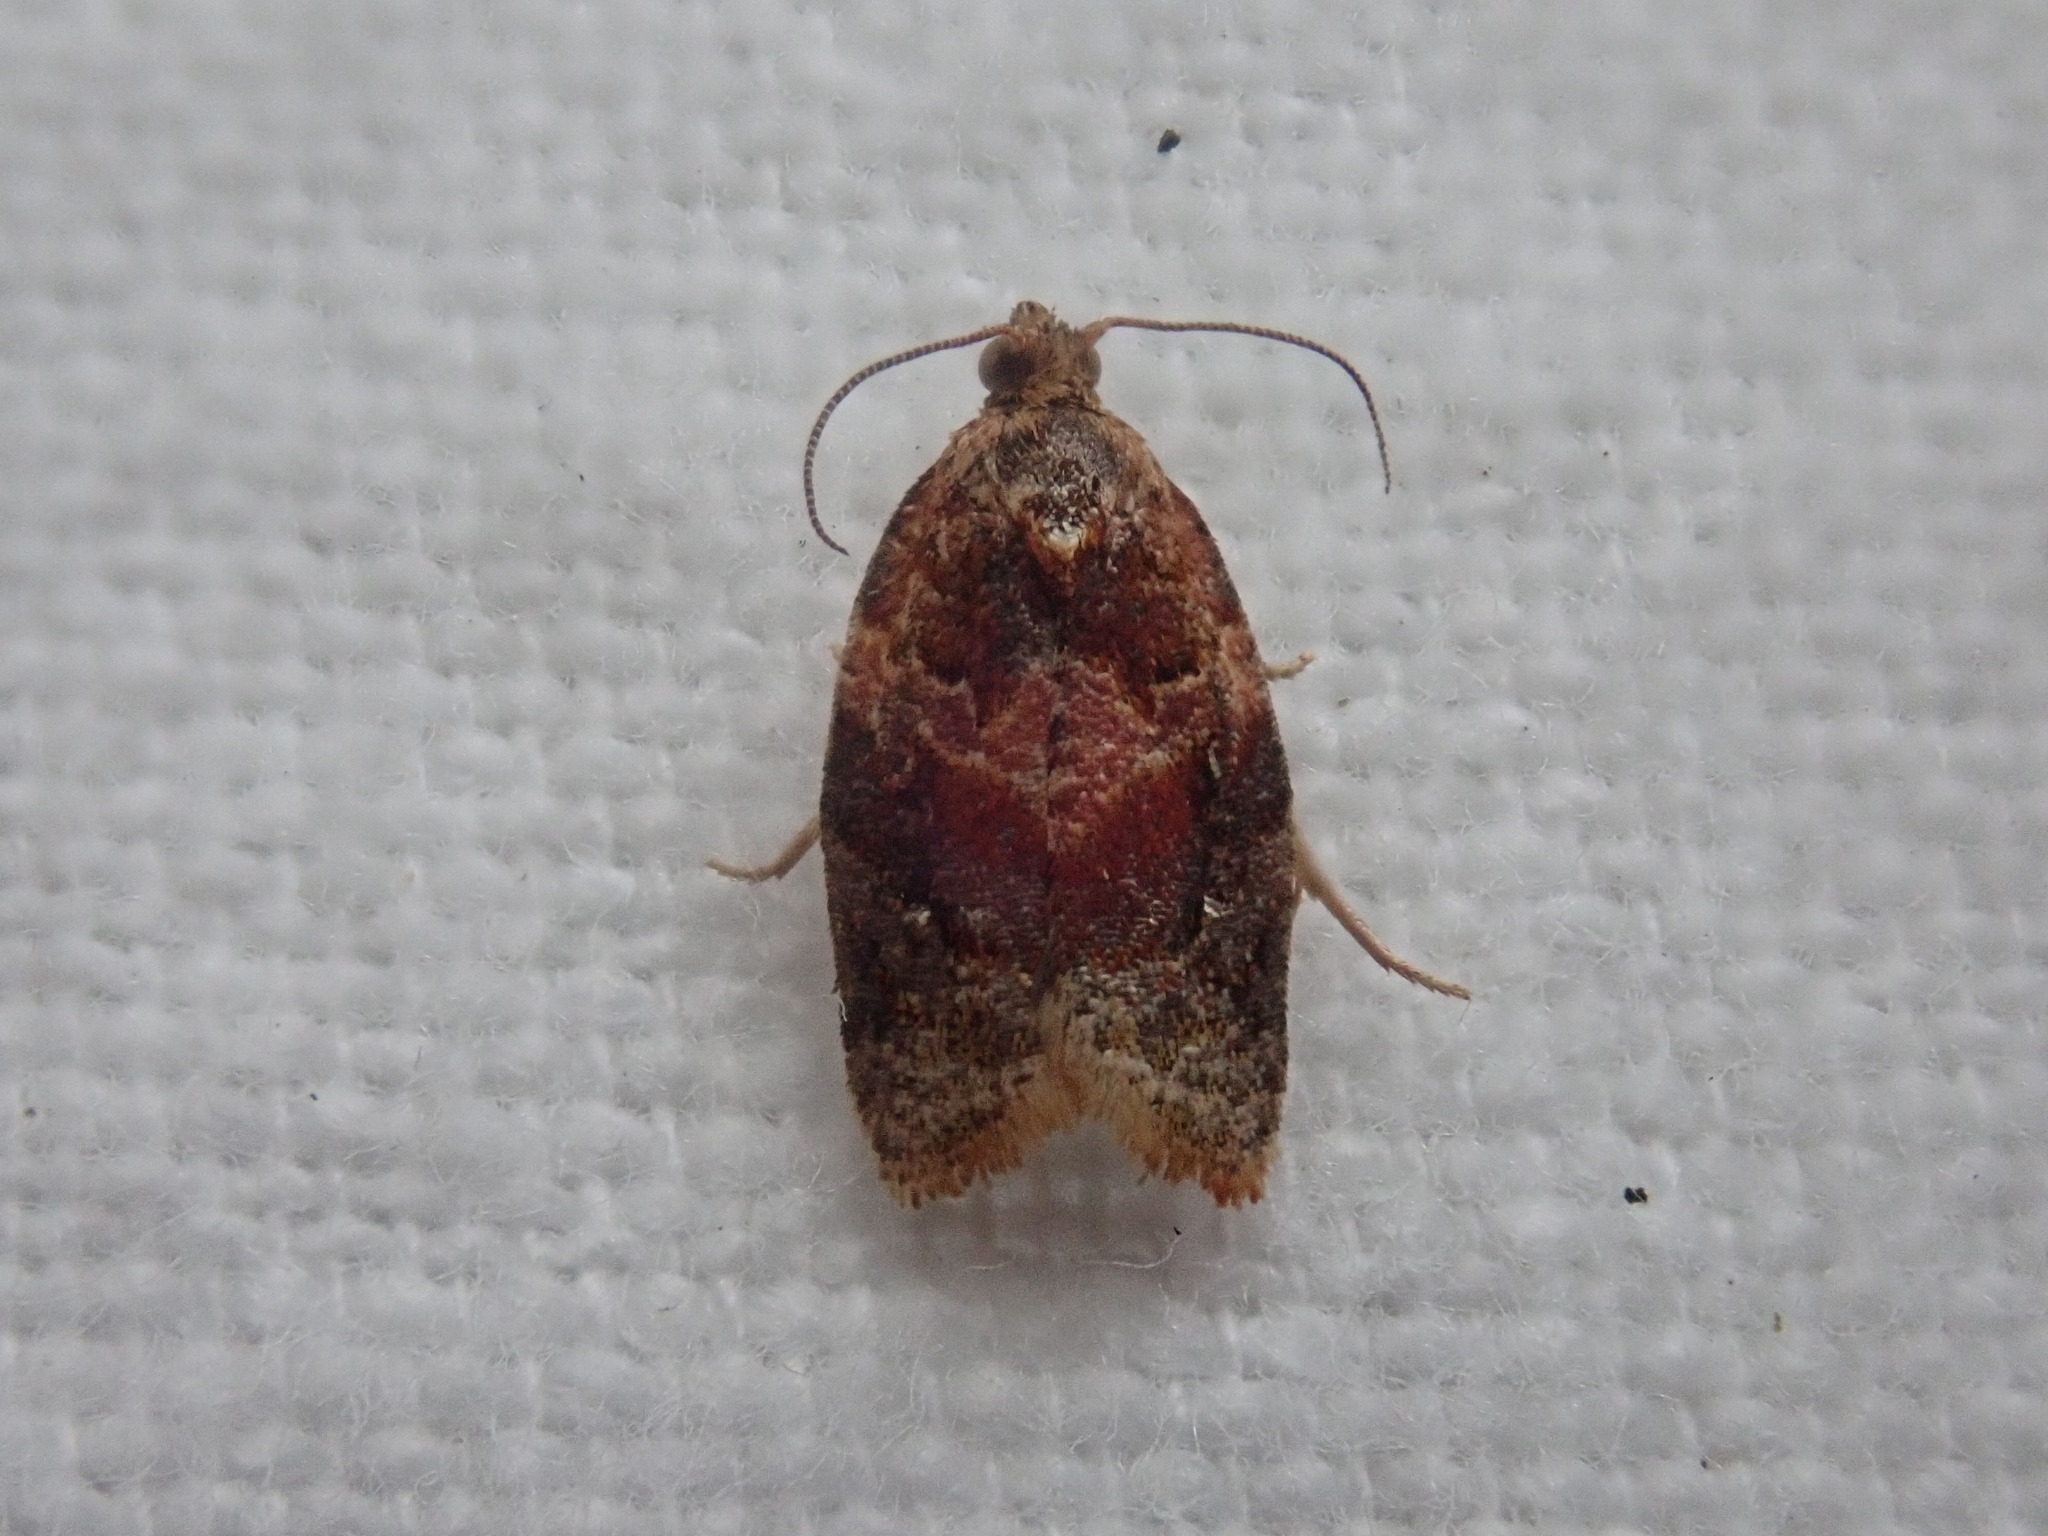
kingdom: Animalia
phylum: Arthropoda
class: Insecta
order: Lepidoptera
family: Tortricidae
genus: Argyrotaenia
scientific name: Argyrotaenia velutinana
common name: Red-banded leafroller moth
